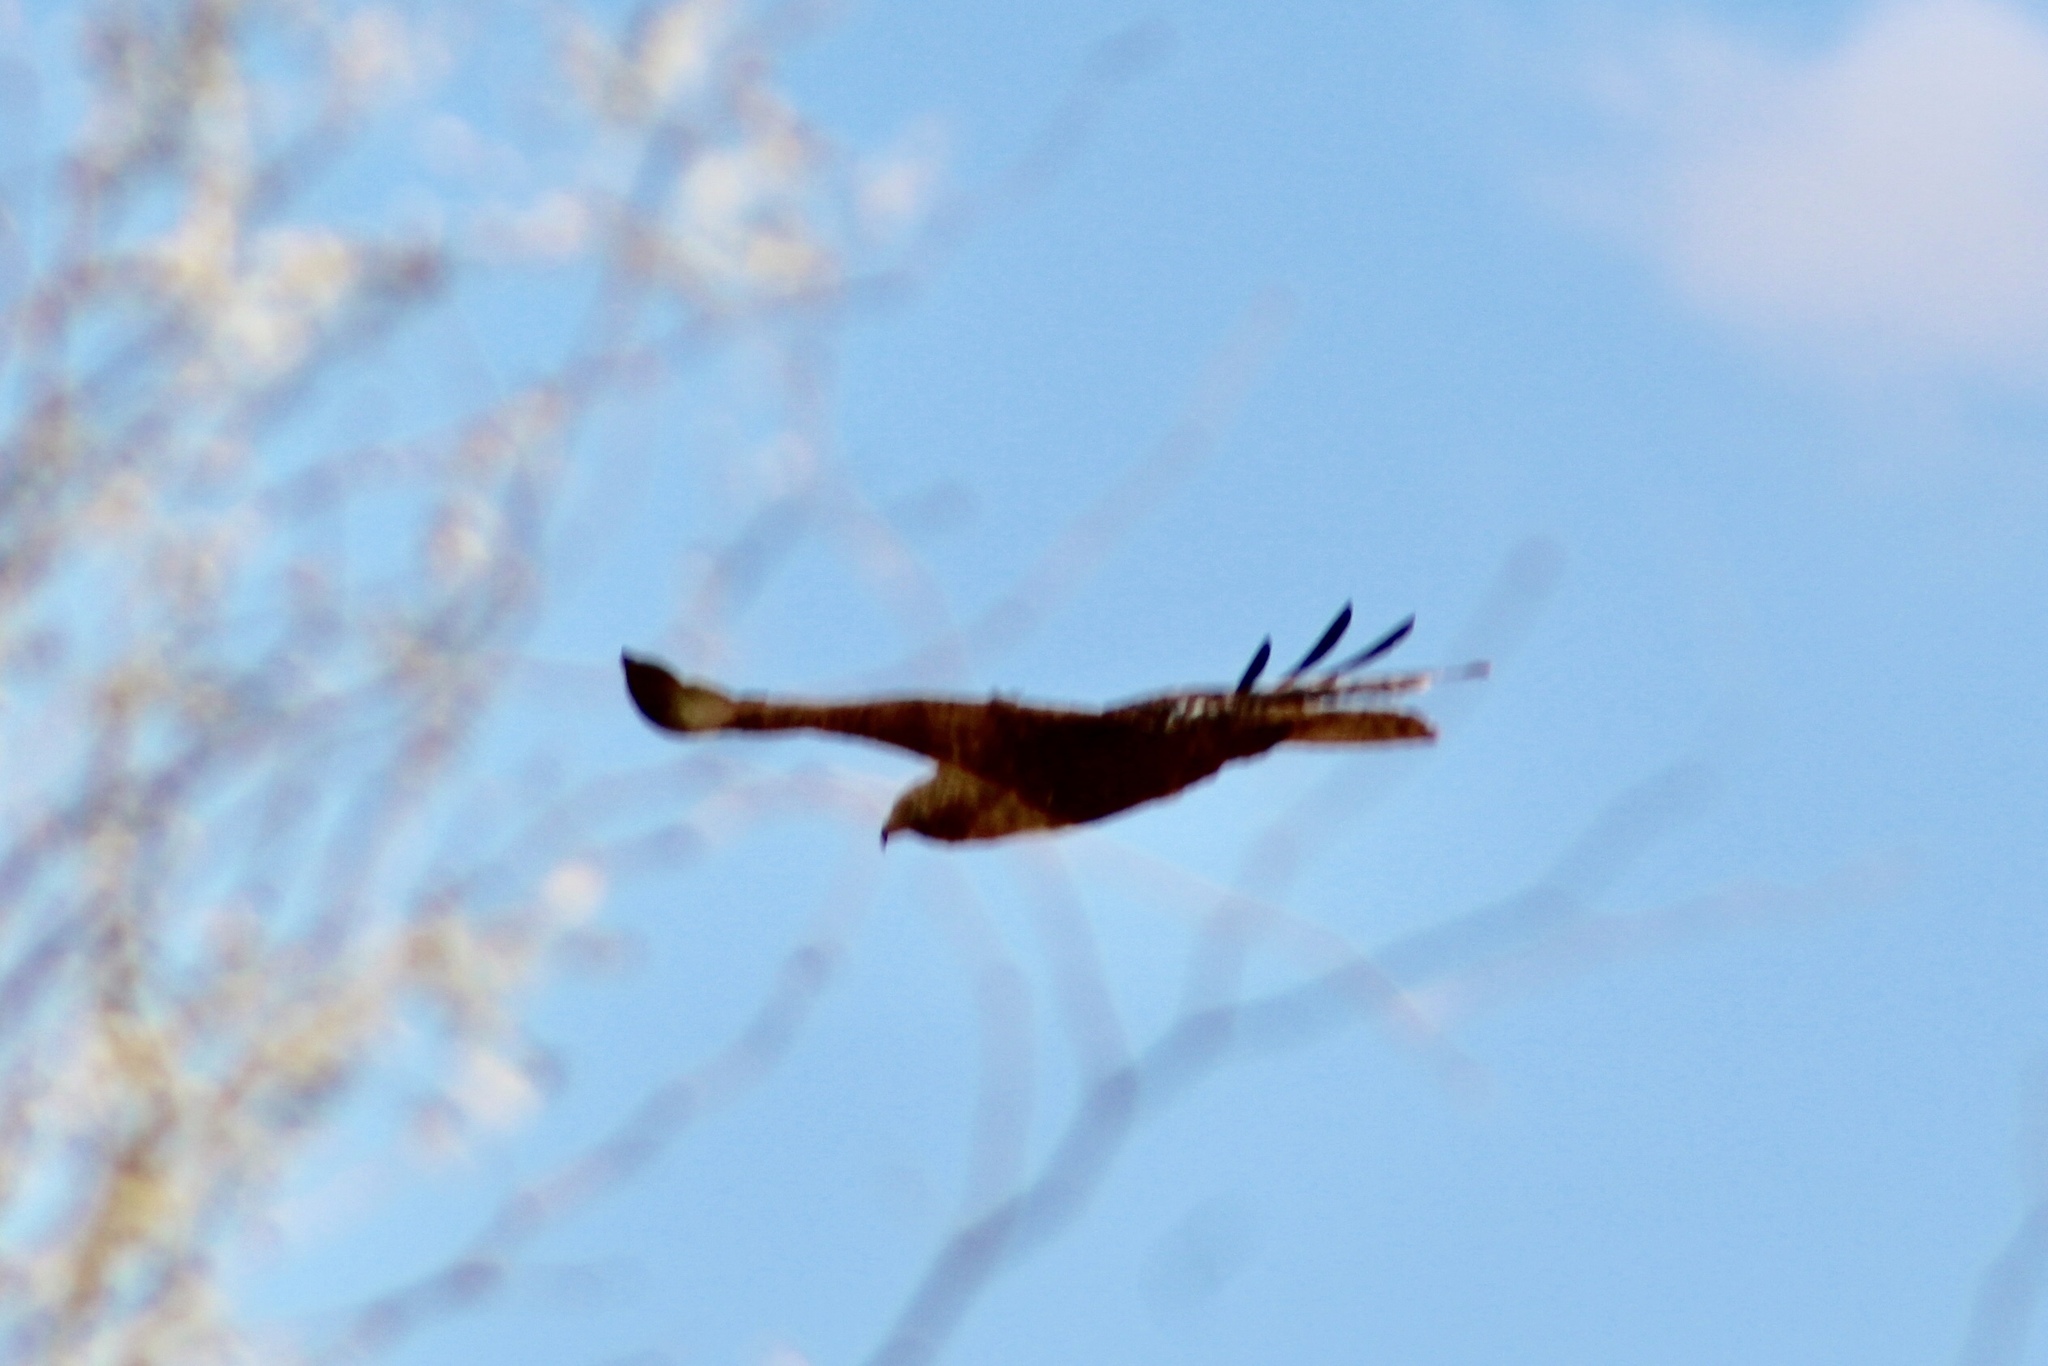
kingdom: Animalia
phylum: Chordata
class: Aves
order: Accipitriformes
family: Accipitridae
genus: Buteo
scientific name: Buteo jamaicensis
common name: Red-tailed hawk
